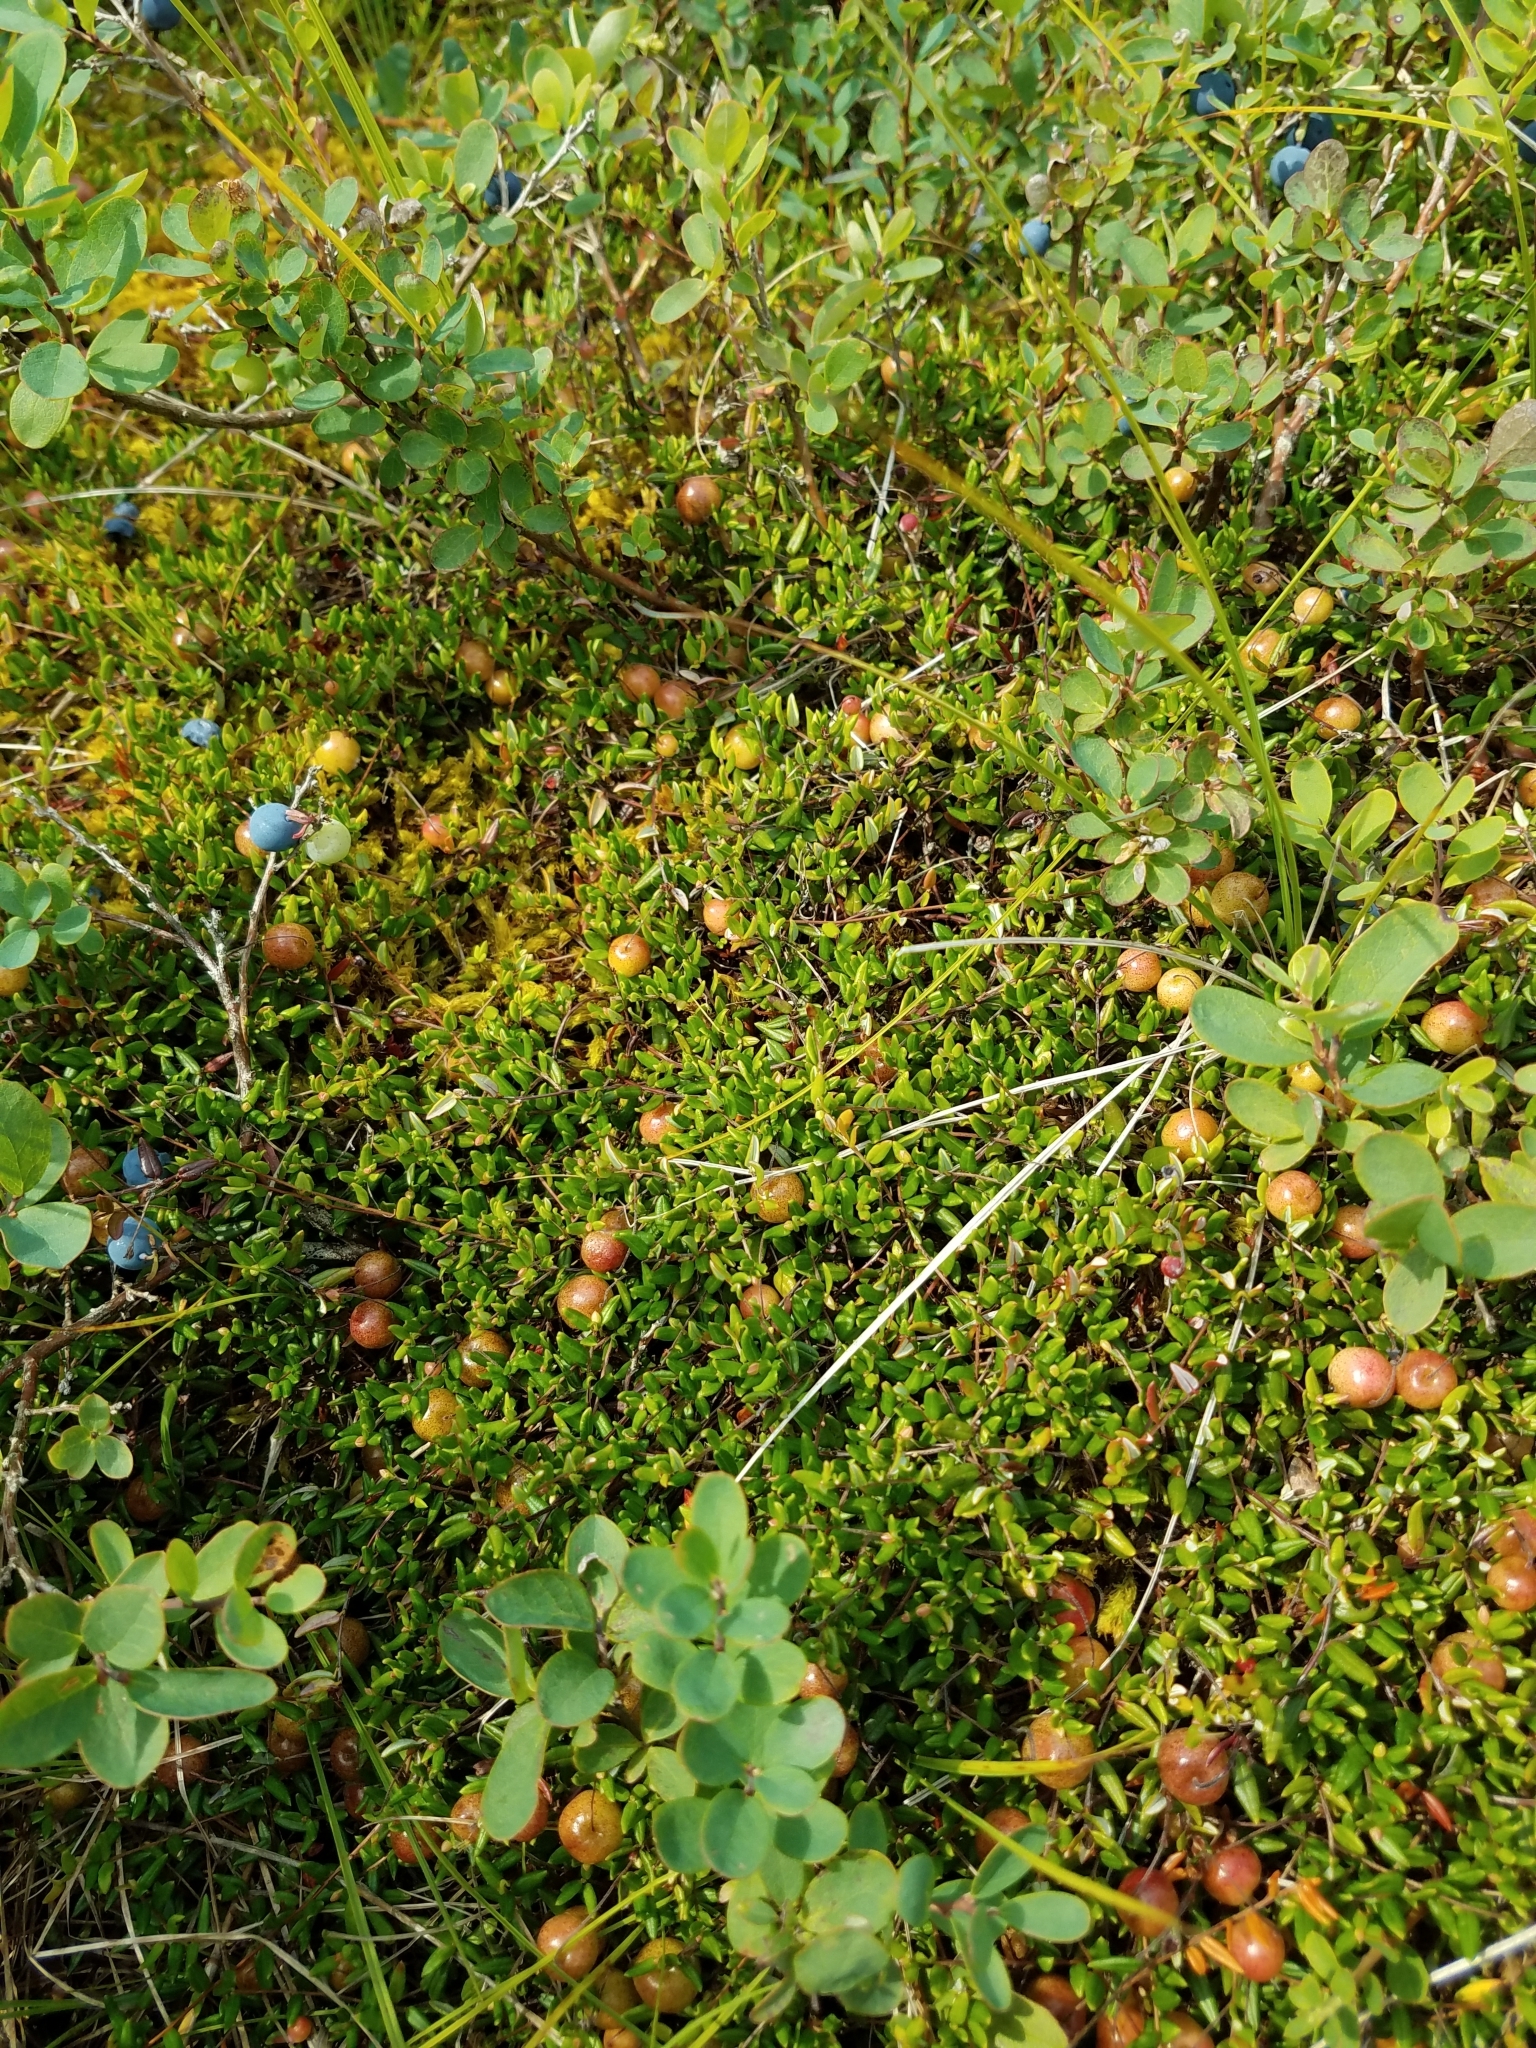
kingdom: Plantae
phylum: Tracheophyta
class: Magnoliopsida
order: Ericales
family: Ericaceae
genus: Vaccinium
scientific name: Vaccinium oxycoccos
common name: Cranberry
